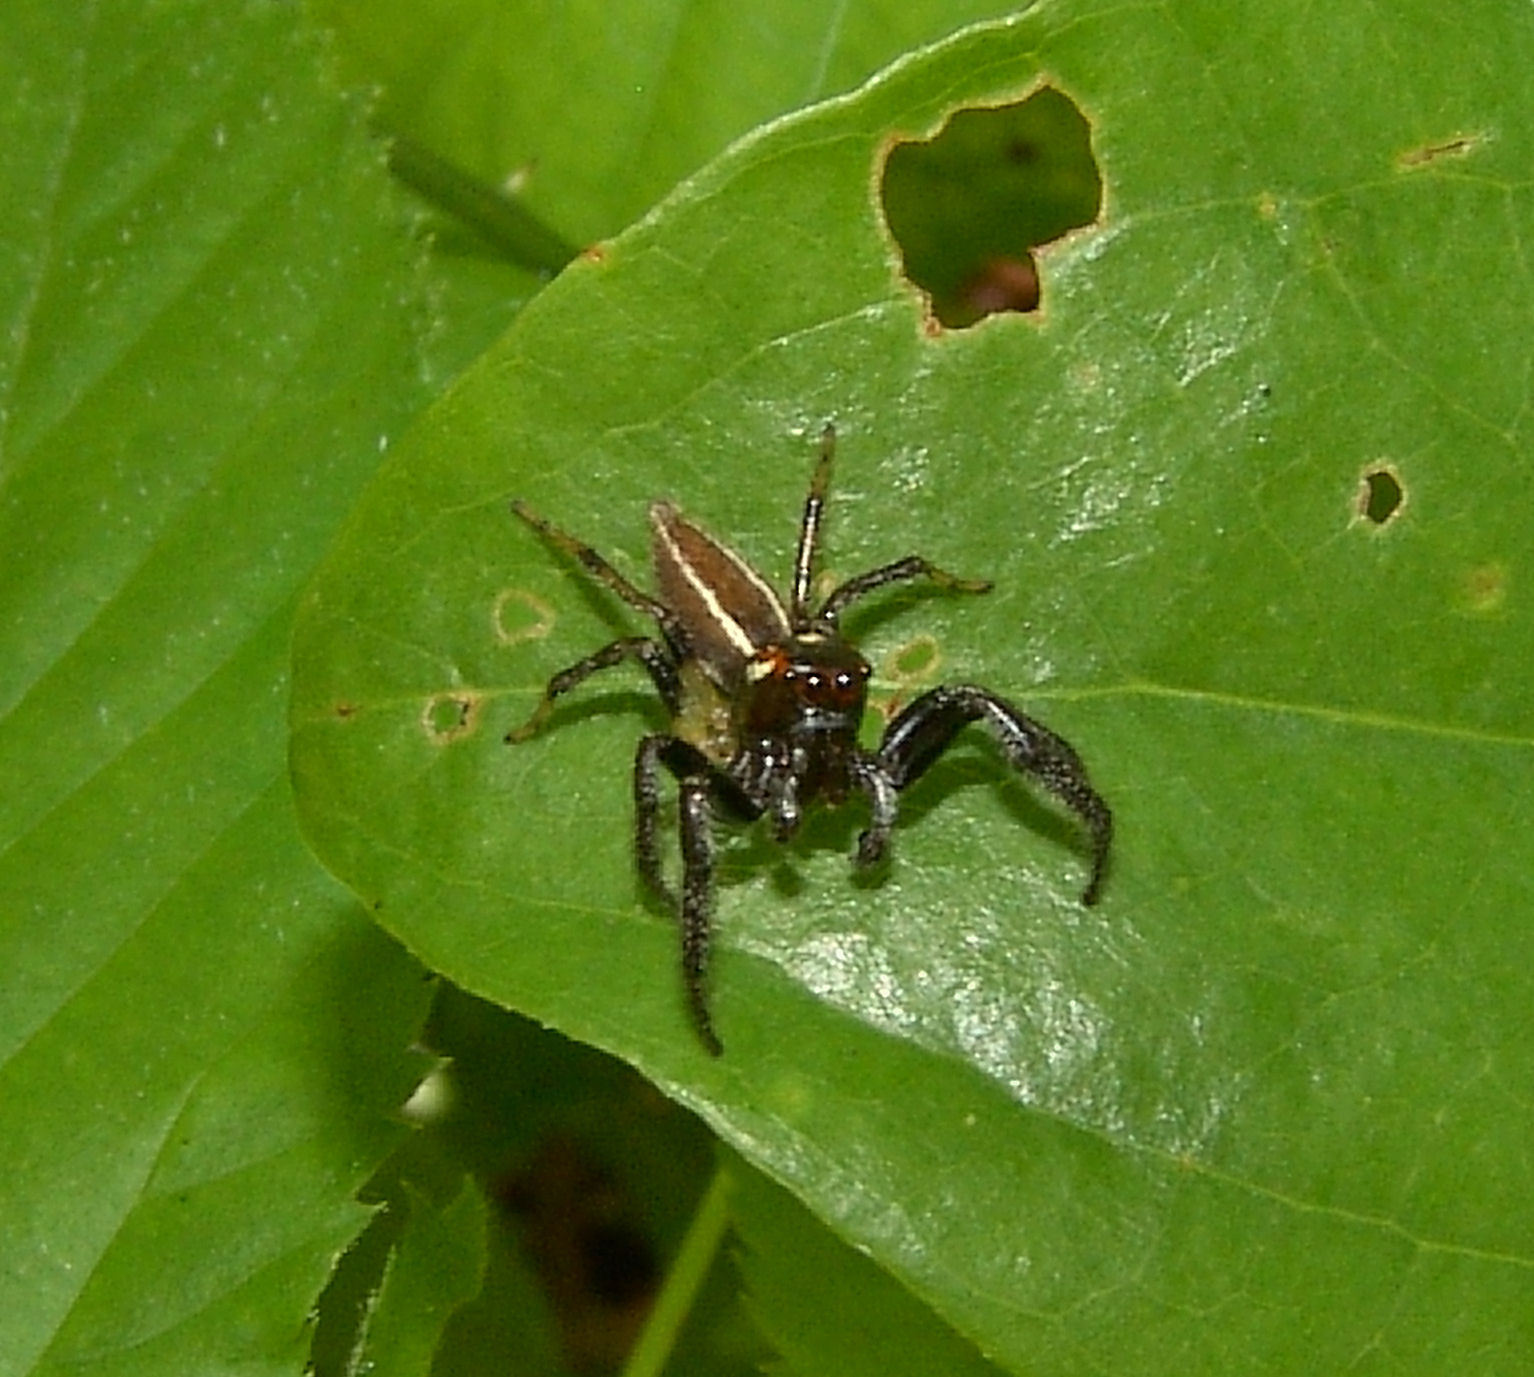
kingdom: Animalia
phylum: Arthropoda
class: Arachnida
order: Araneae
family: Salticidae
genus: Colonus
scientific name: Colonus sylvanus
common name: Jumping spiders
